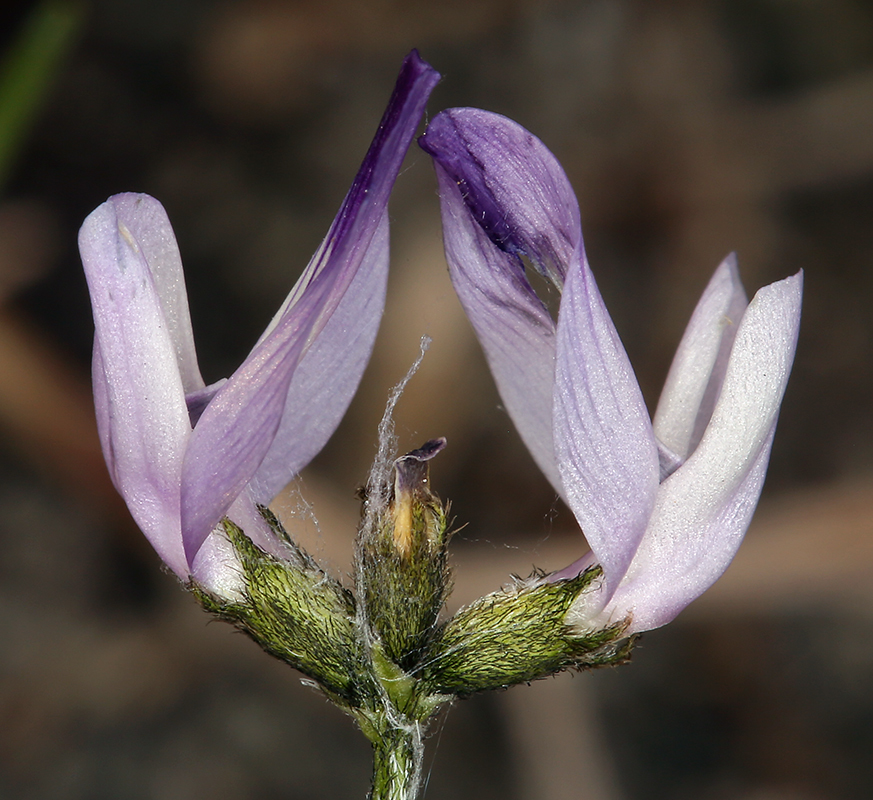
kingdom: Plantae
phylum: Tracheophyta
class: Magnoliopsida
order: Fabales
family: Fabaceae
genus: Astragalus
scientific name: Astragalus rattanii
